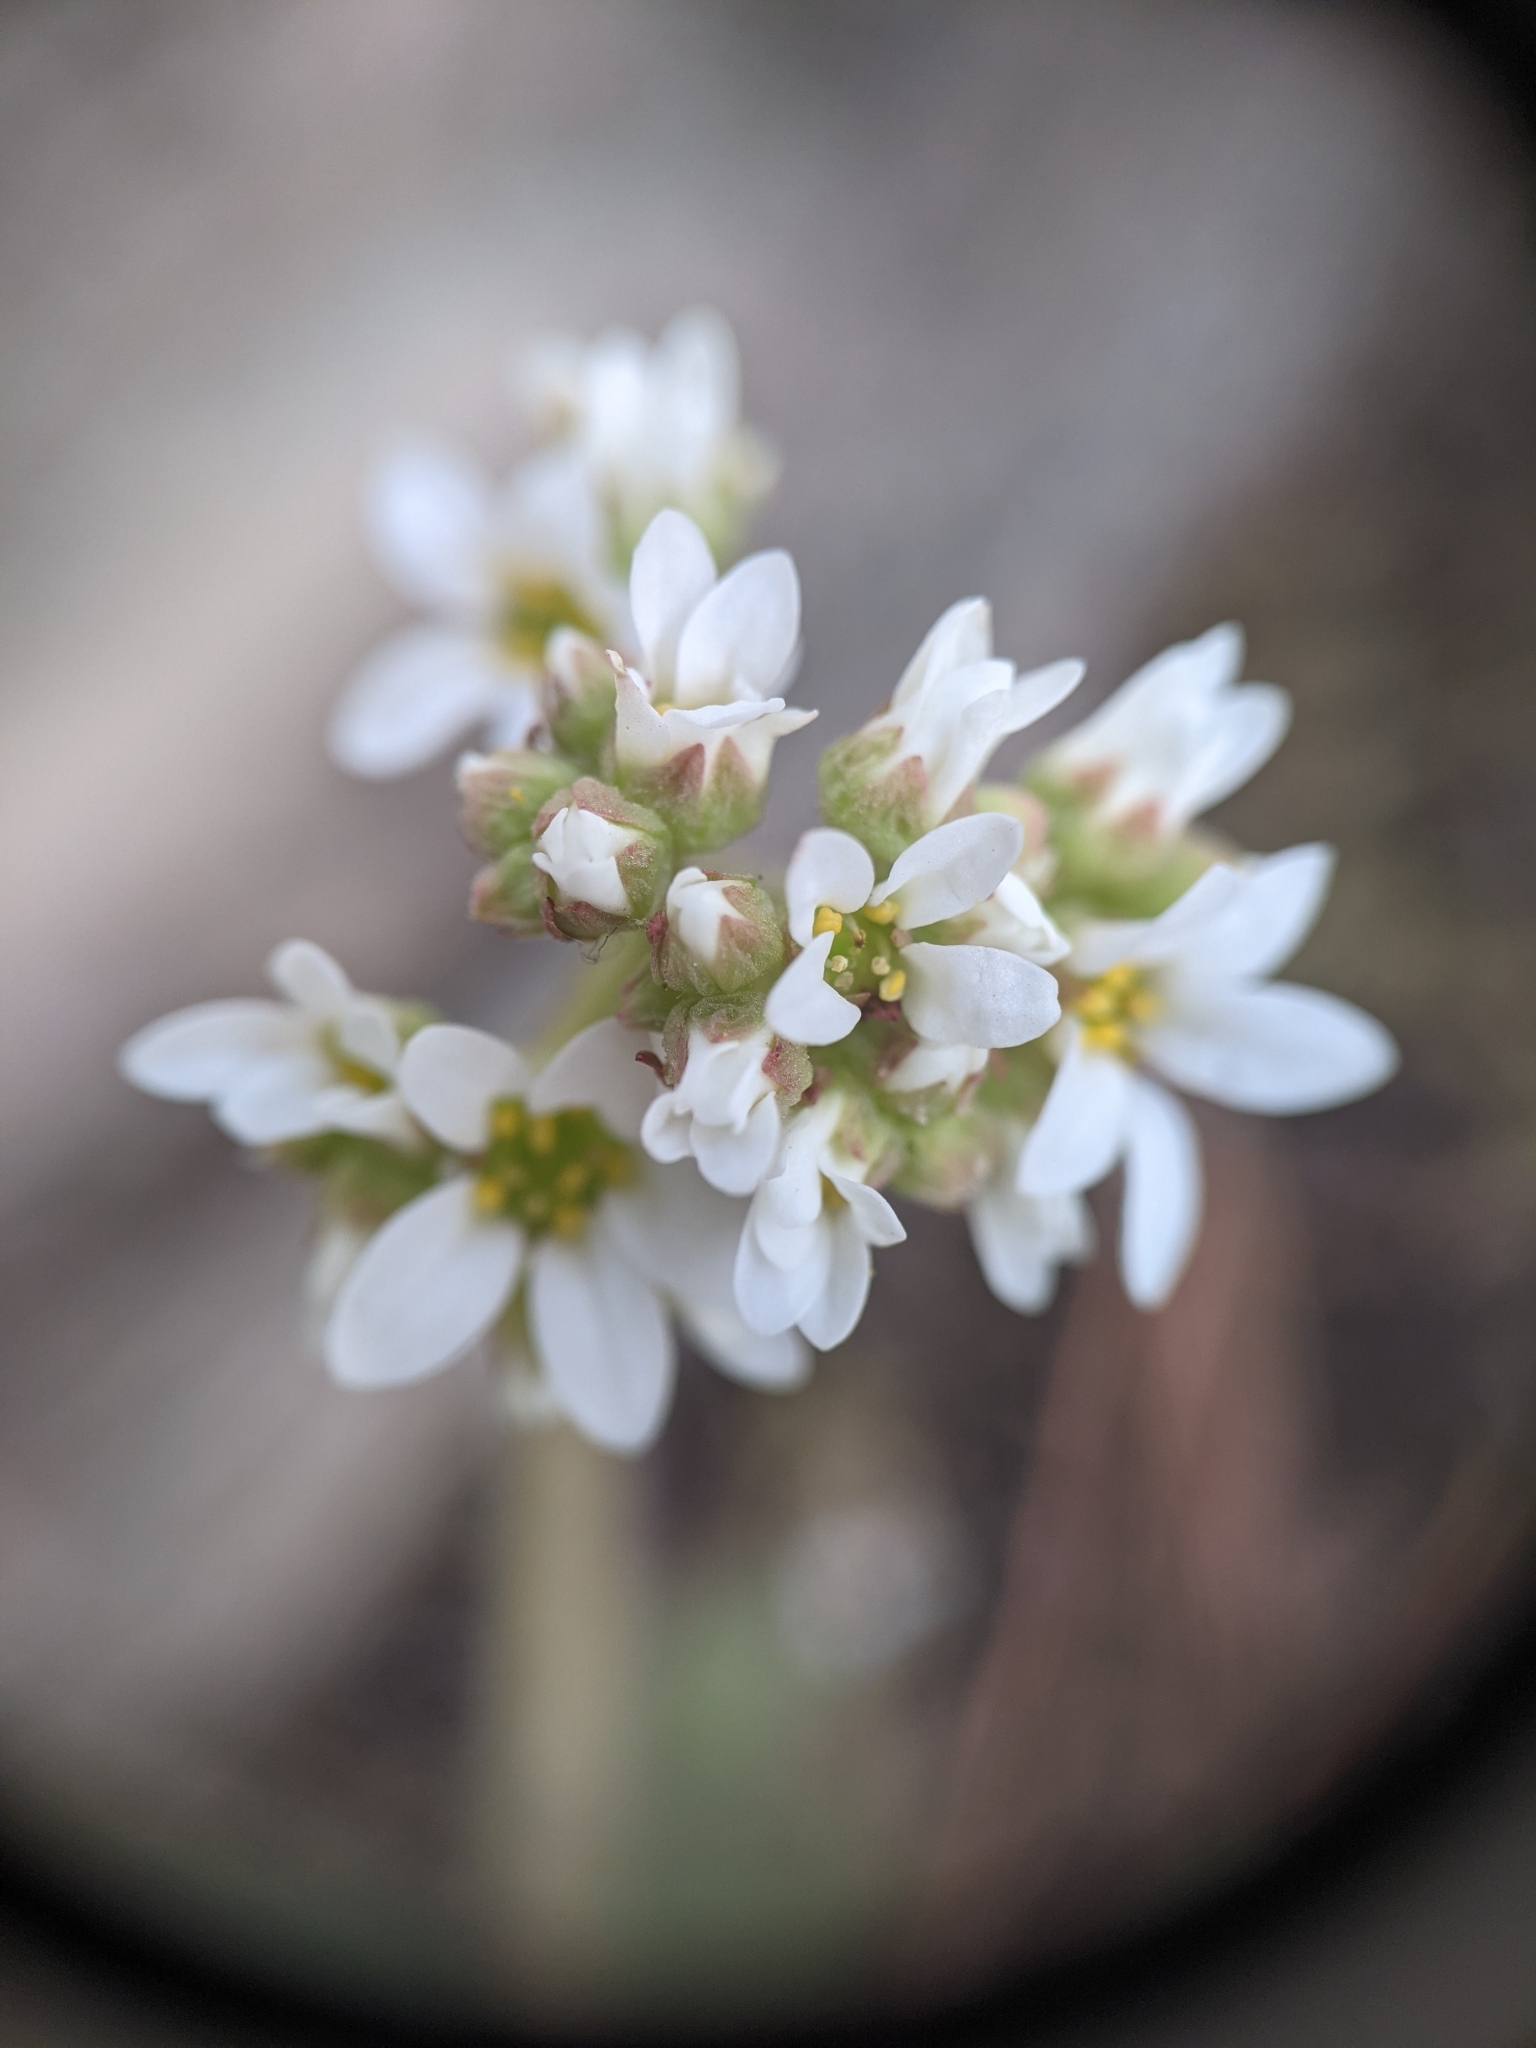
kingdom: Plantae
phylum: Tracheophyta
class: Magnoliopsida
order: Saxifragales
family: Saxifragaceae
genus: Micranthes
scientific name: Micranthes virginiensis
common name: Early saxifrage
